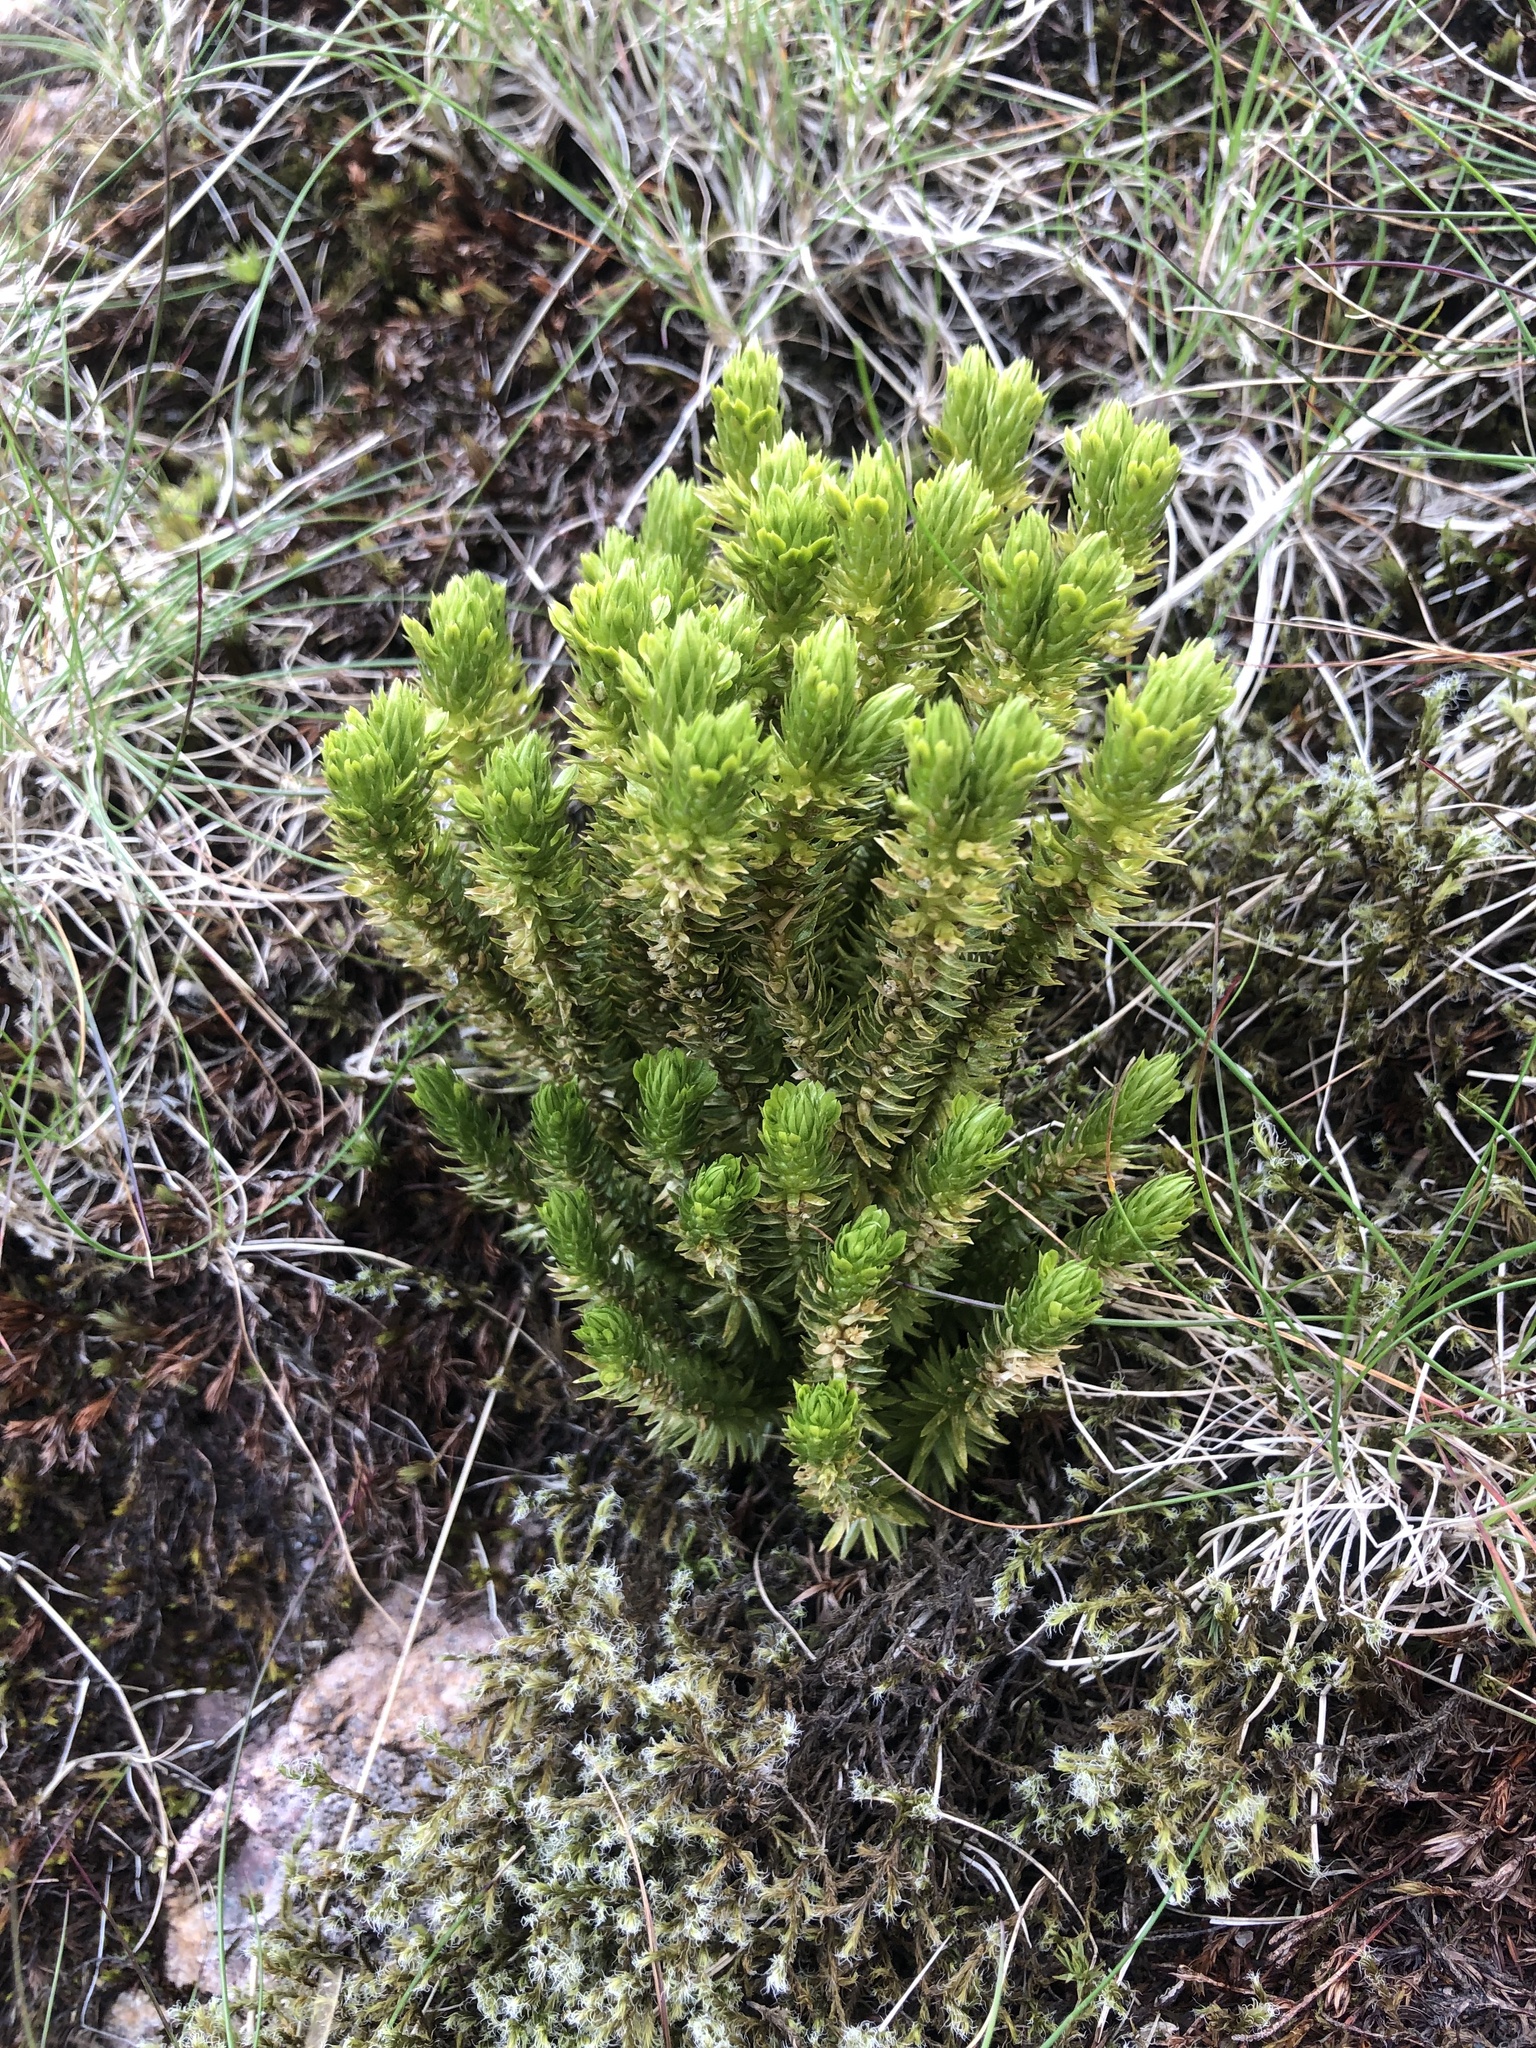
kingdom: Plantae
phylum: Tracheophyta
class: Lycopodiopsida
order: Lycopodiales
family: Lycopodiaceae
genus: Huperzia
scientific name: Huperzia selago
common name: Northern firmoss
